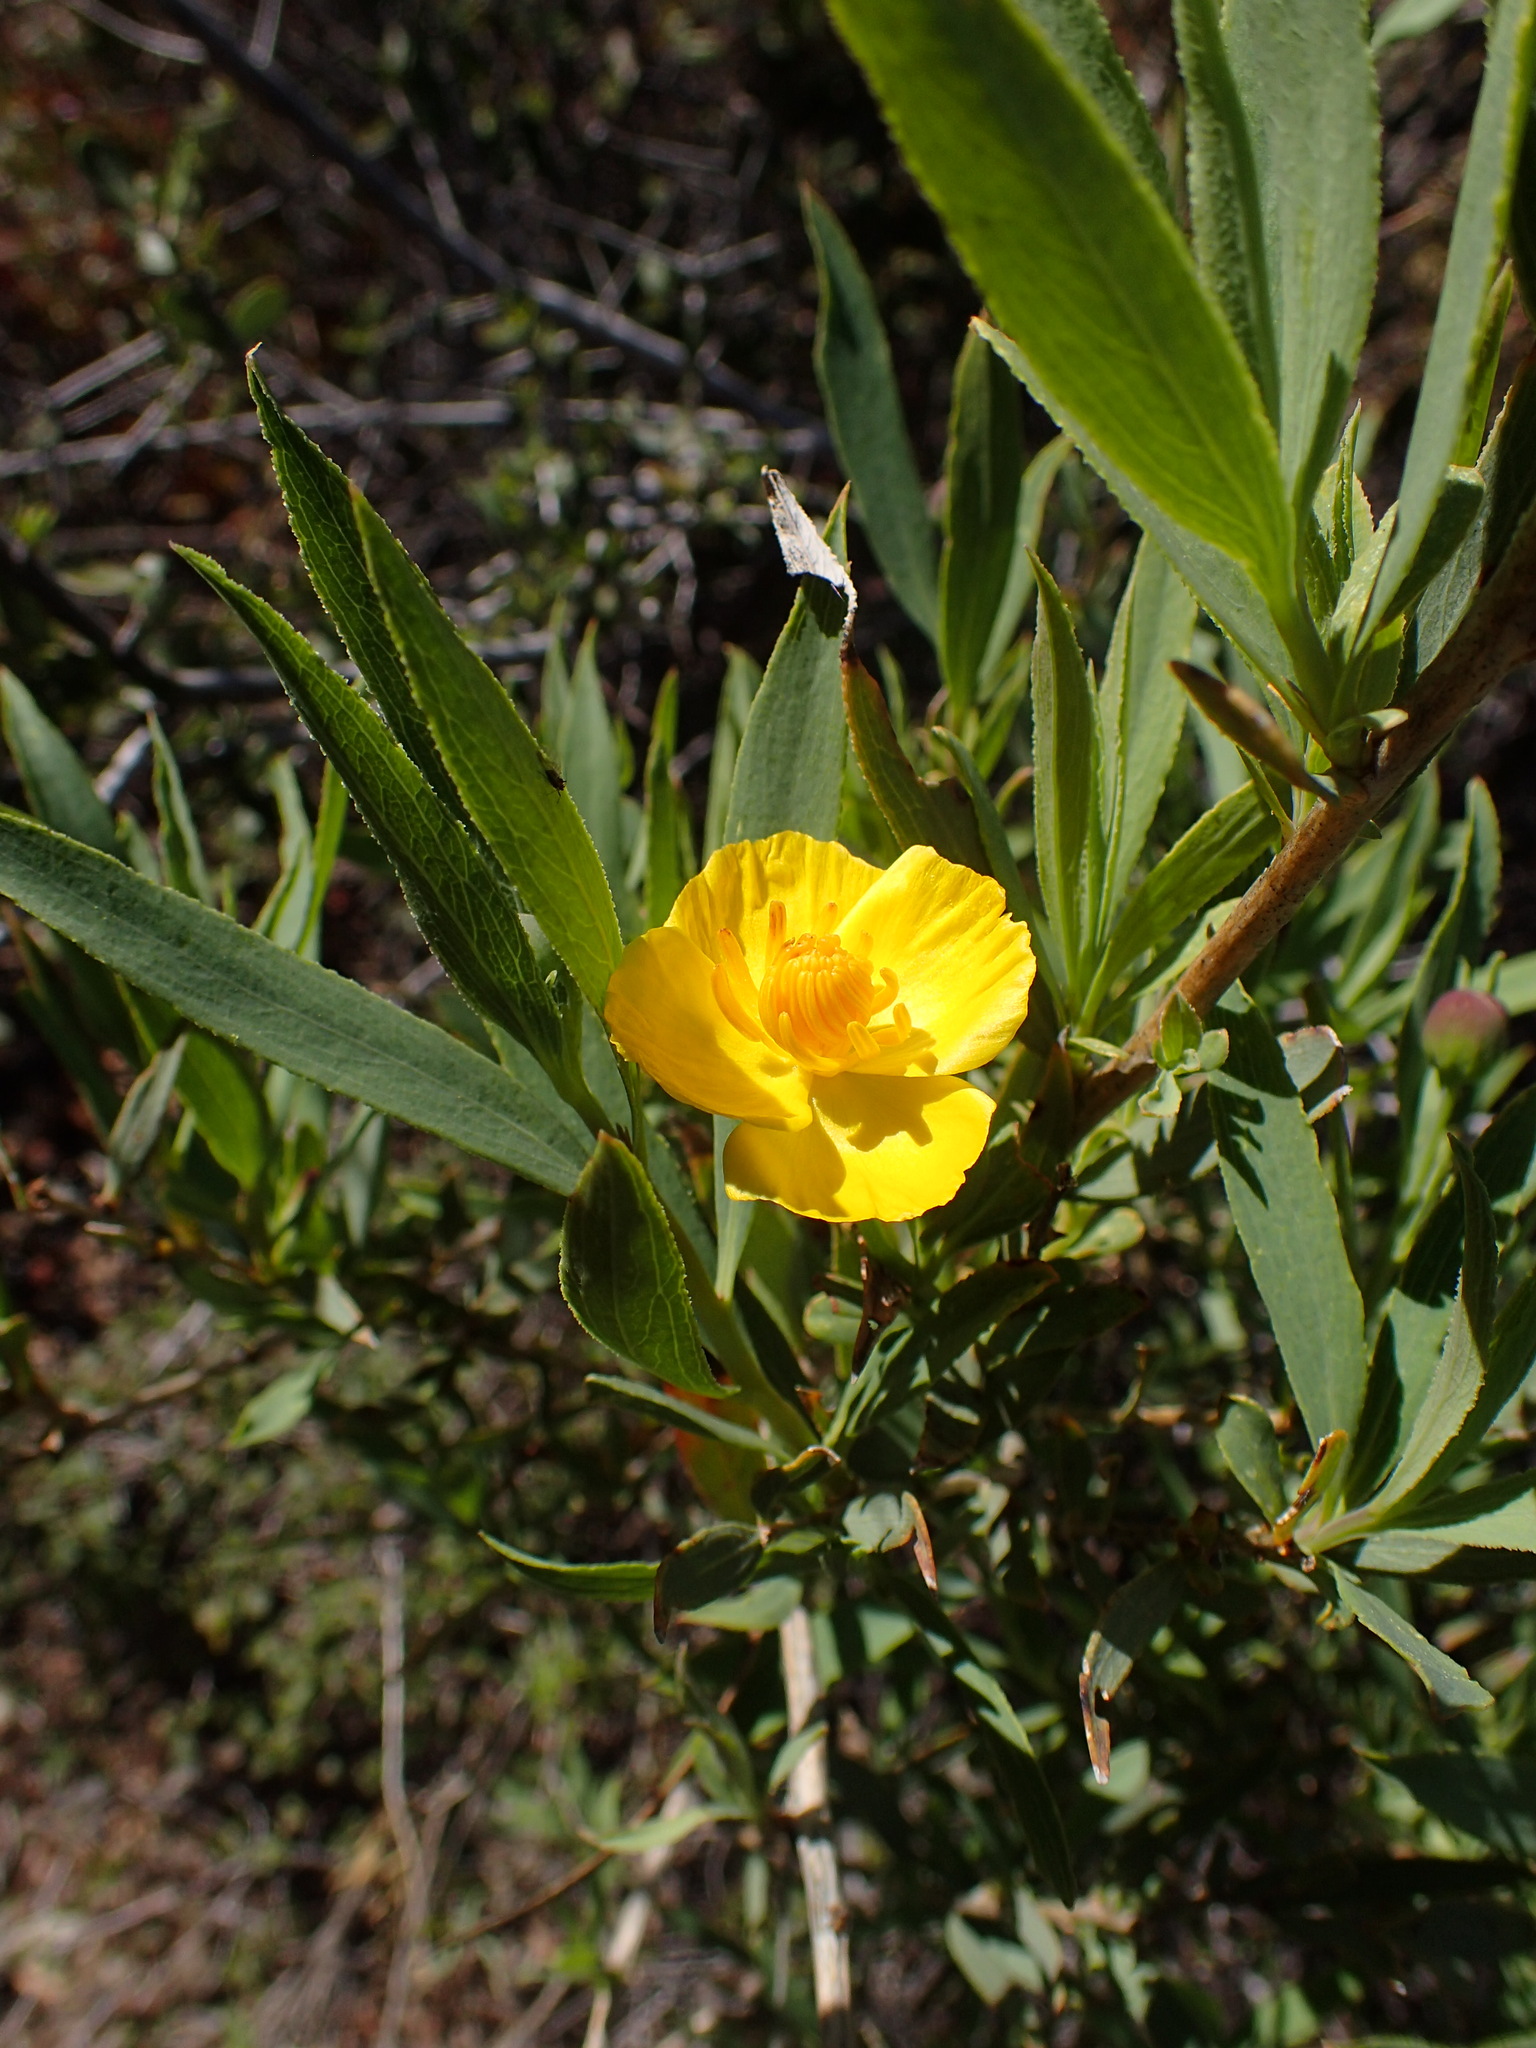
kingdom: Plantae
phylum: Tracheophyta
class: Magnoliopsida
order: Ranunculales
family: Papaveraceae
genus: Dendromecon
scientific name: Dendromecon rigida
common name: Tree poppy
